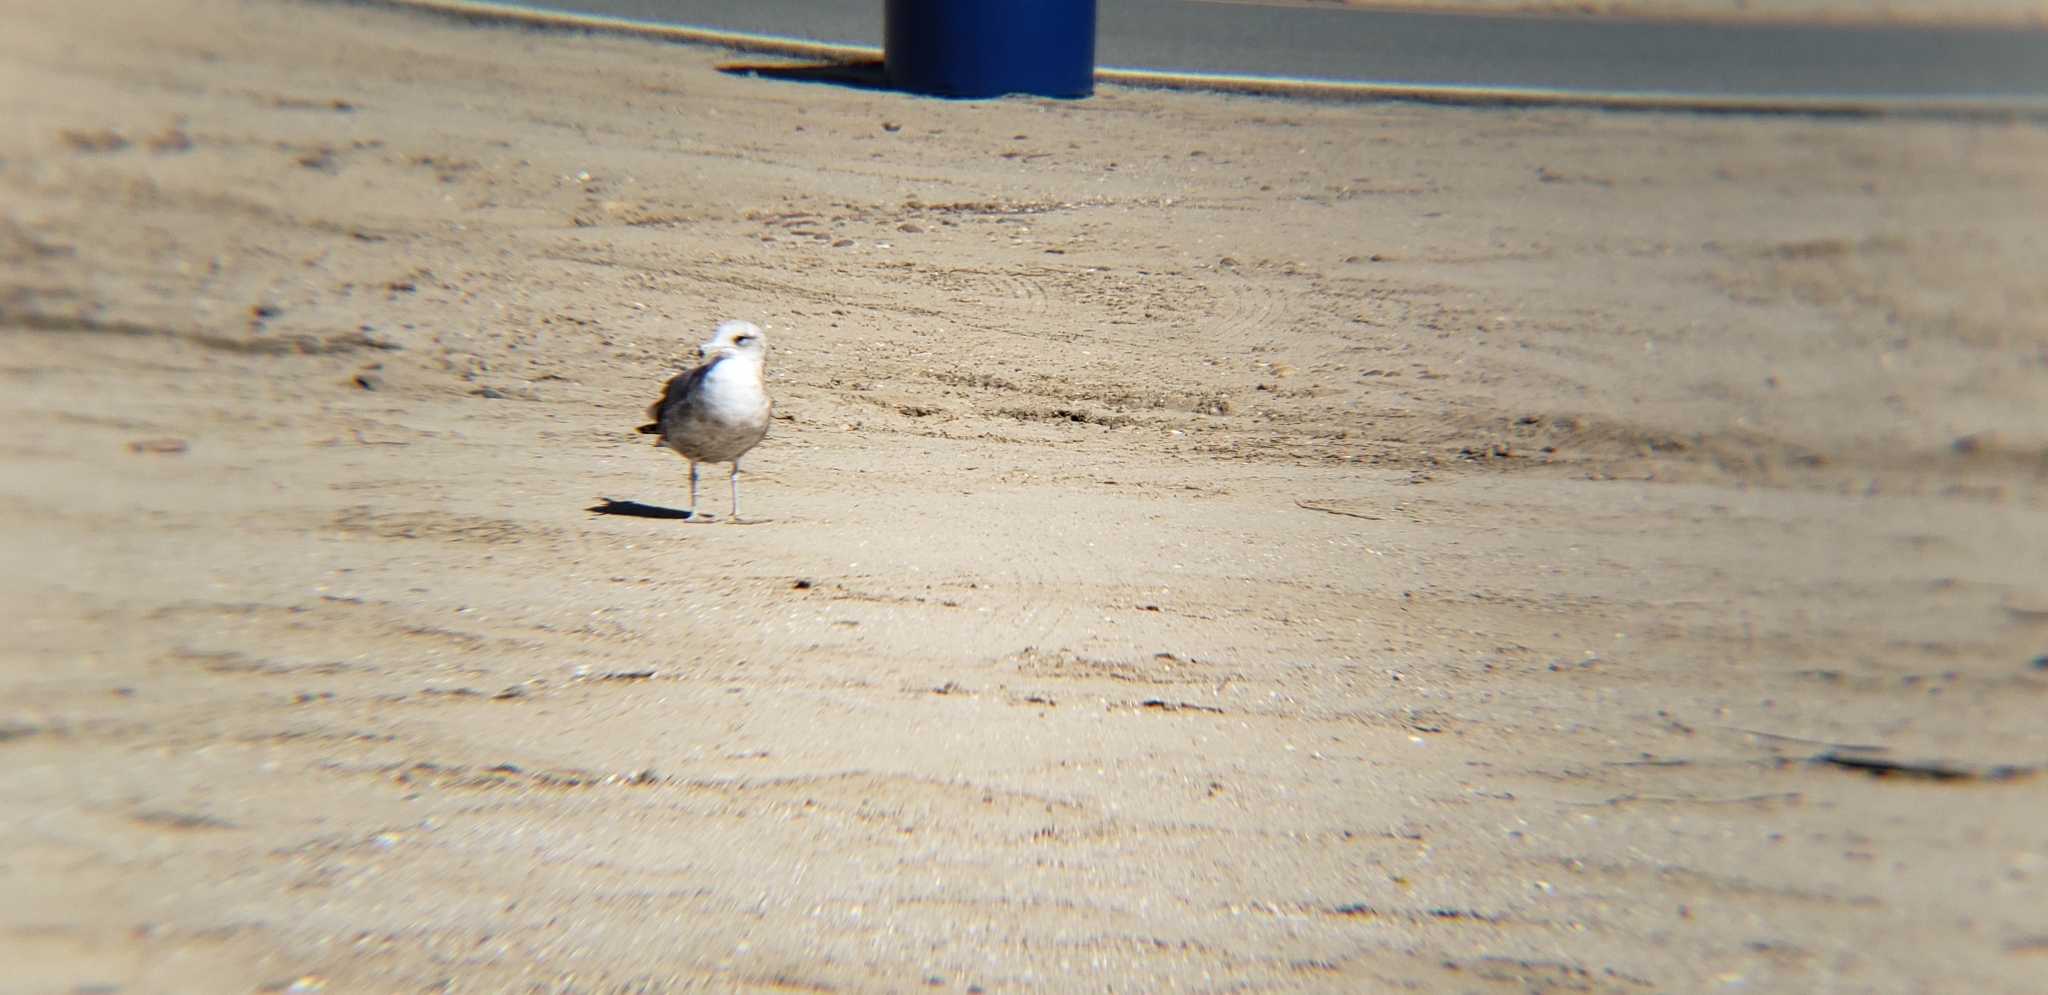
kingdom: Animalia
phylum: Chordata
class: Aves
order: Charadriiformes
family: Laridae
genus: Larus
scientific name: Larus californicus
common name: California gull
